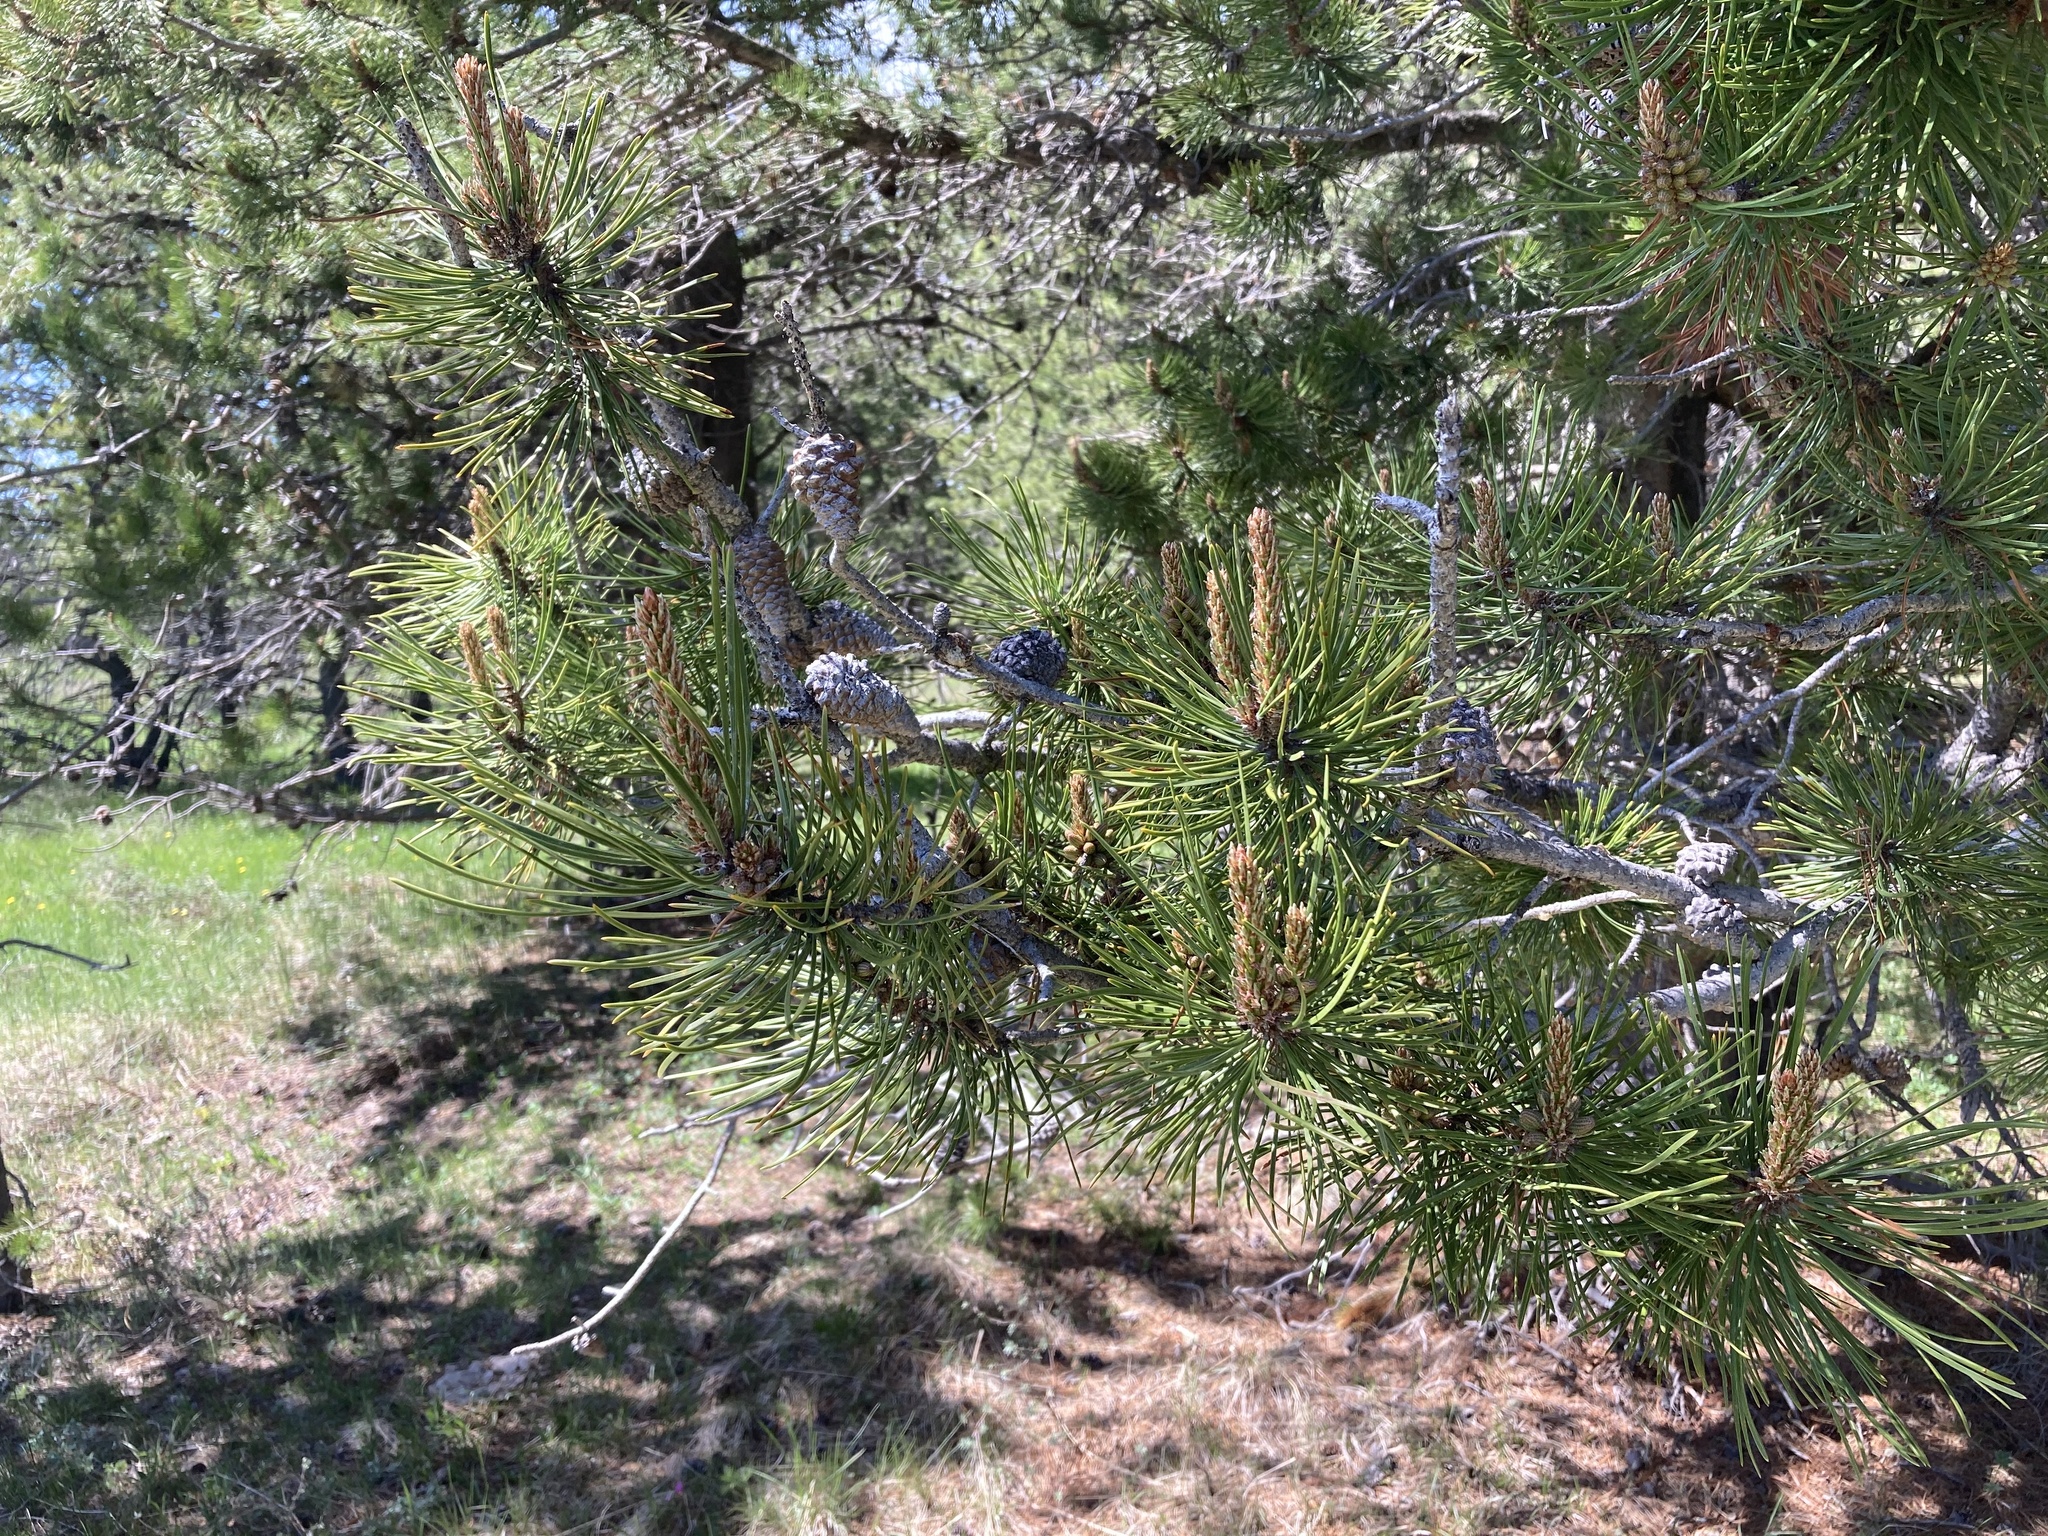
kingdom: Plantae
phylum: Tracheophyta
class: Pinopsida
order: Pinales
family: Pinaceae
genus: Pinus
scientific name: Pinus contorta
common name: Lodgepole pine
